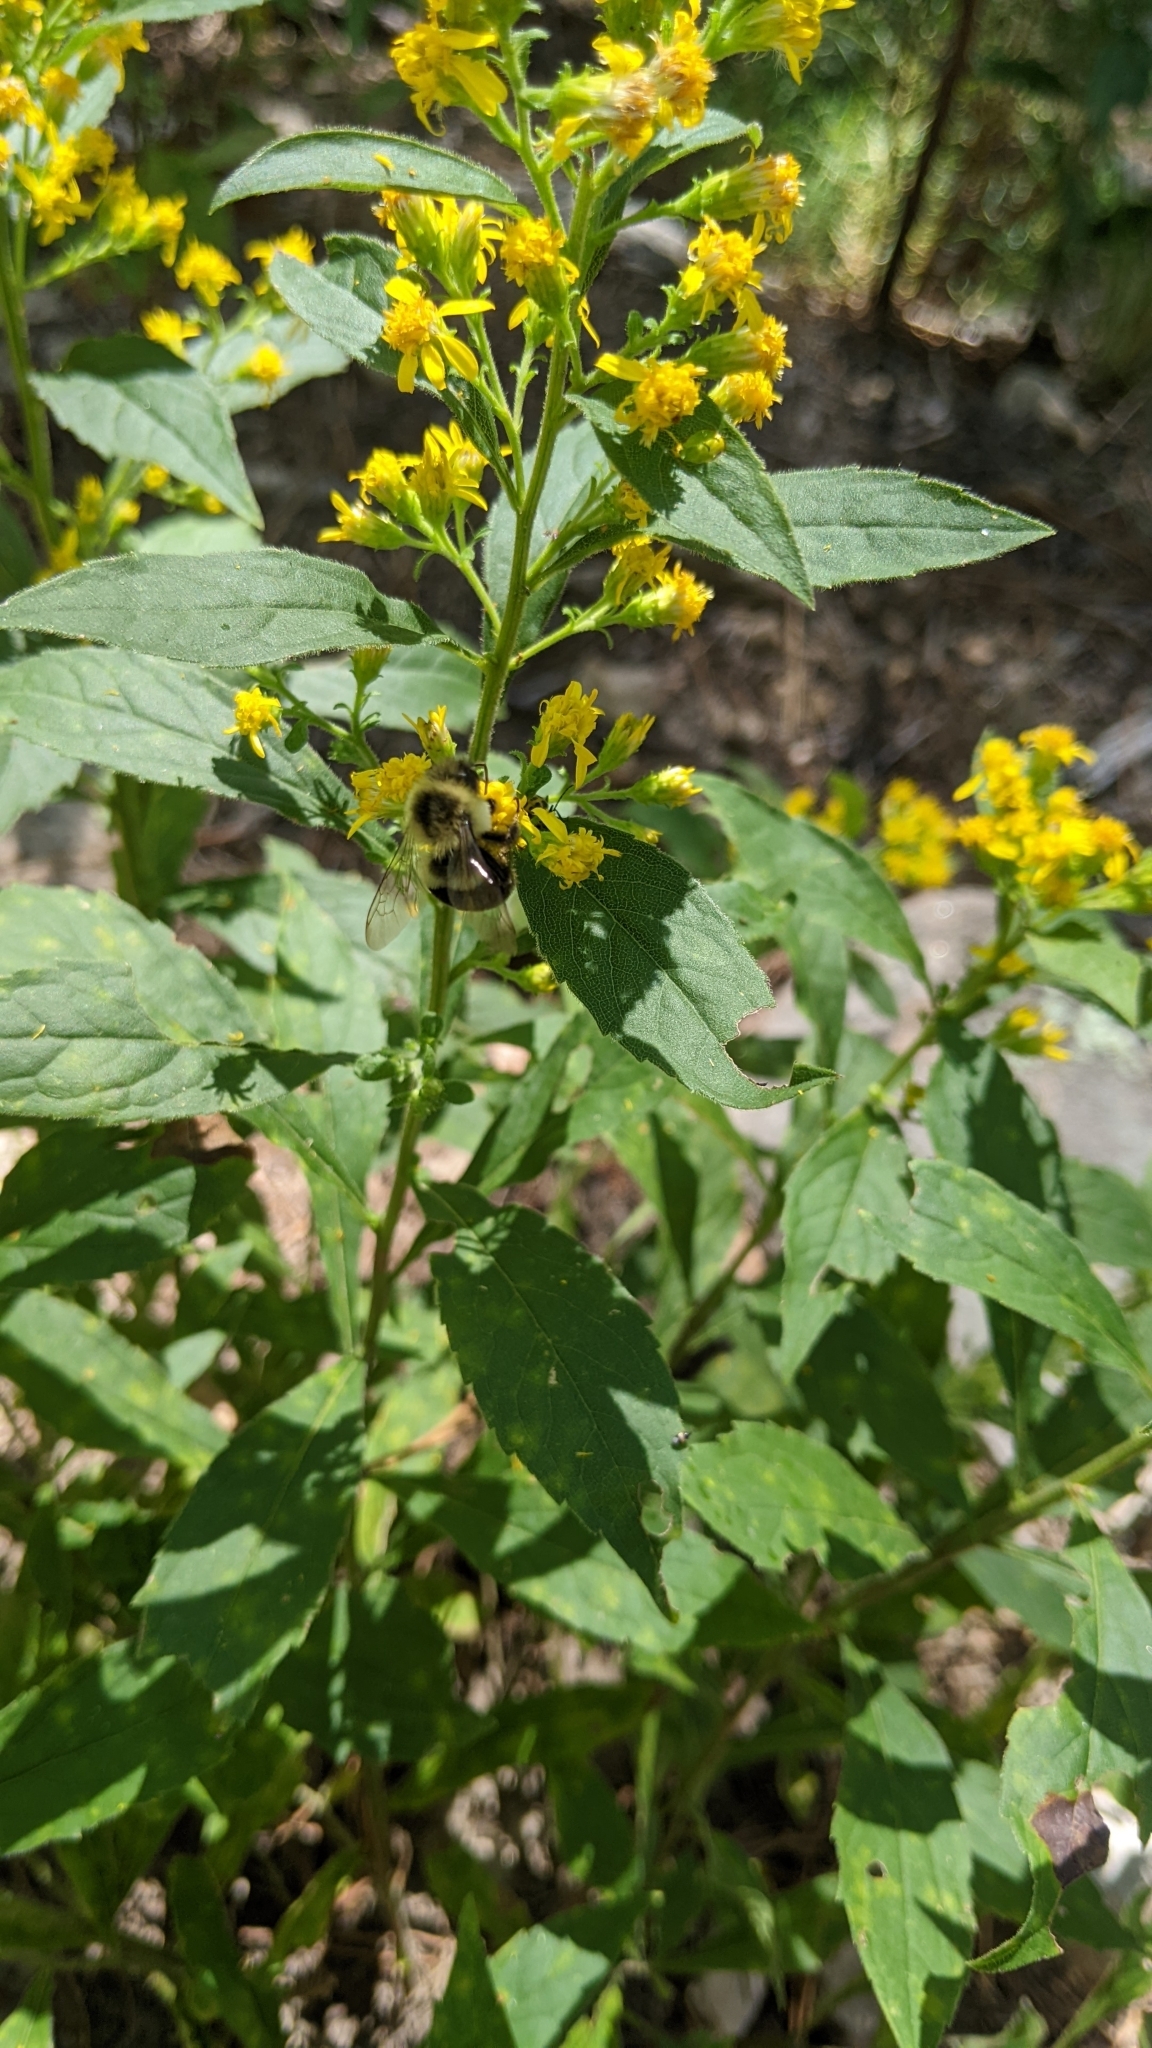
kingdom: Animalia
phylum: Arthropoda
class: Insecta
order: Hymenoptera
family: Apidae
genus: Bombus
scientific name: Bombus impatiens
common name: Common eastern bumble bee
